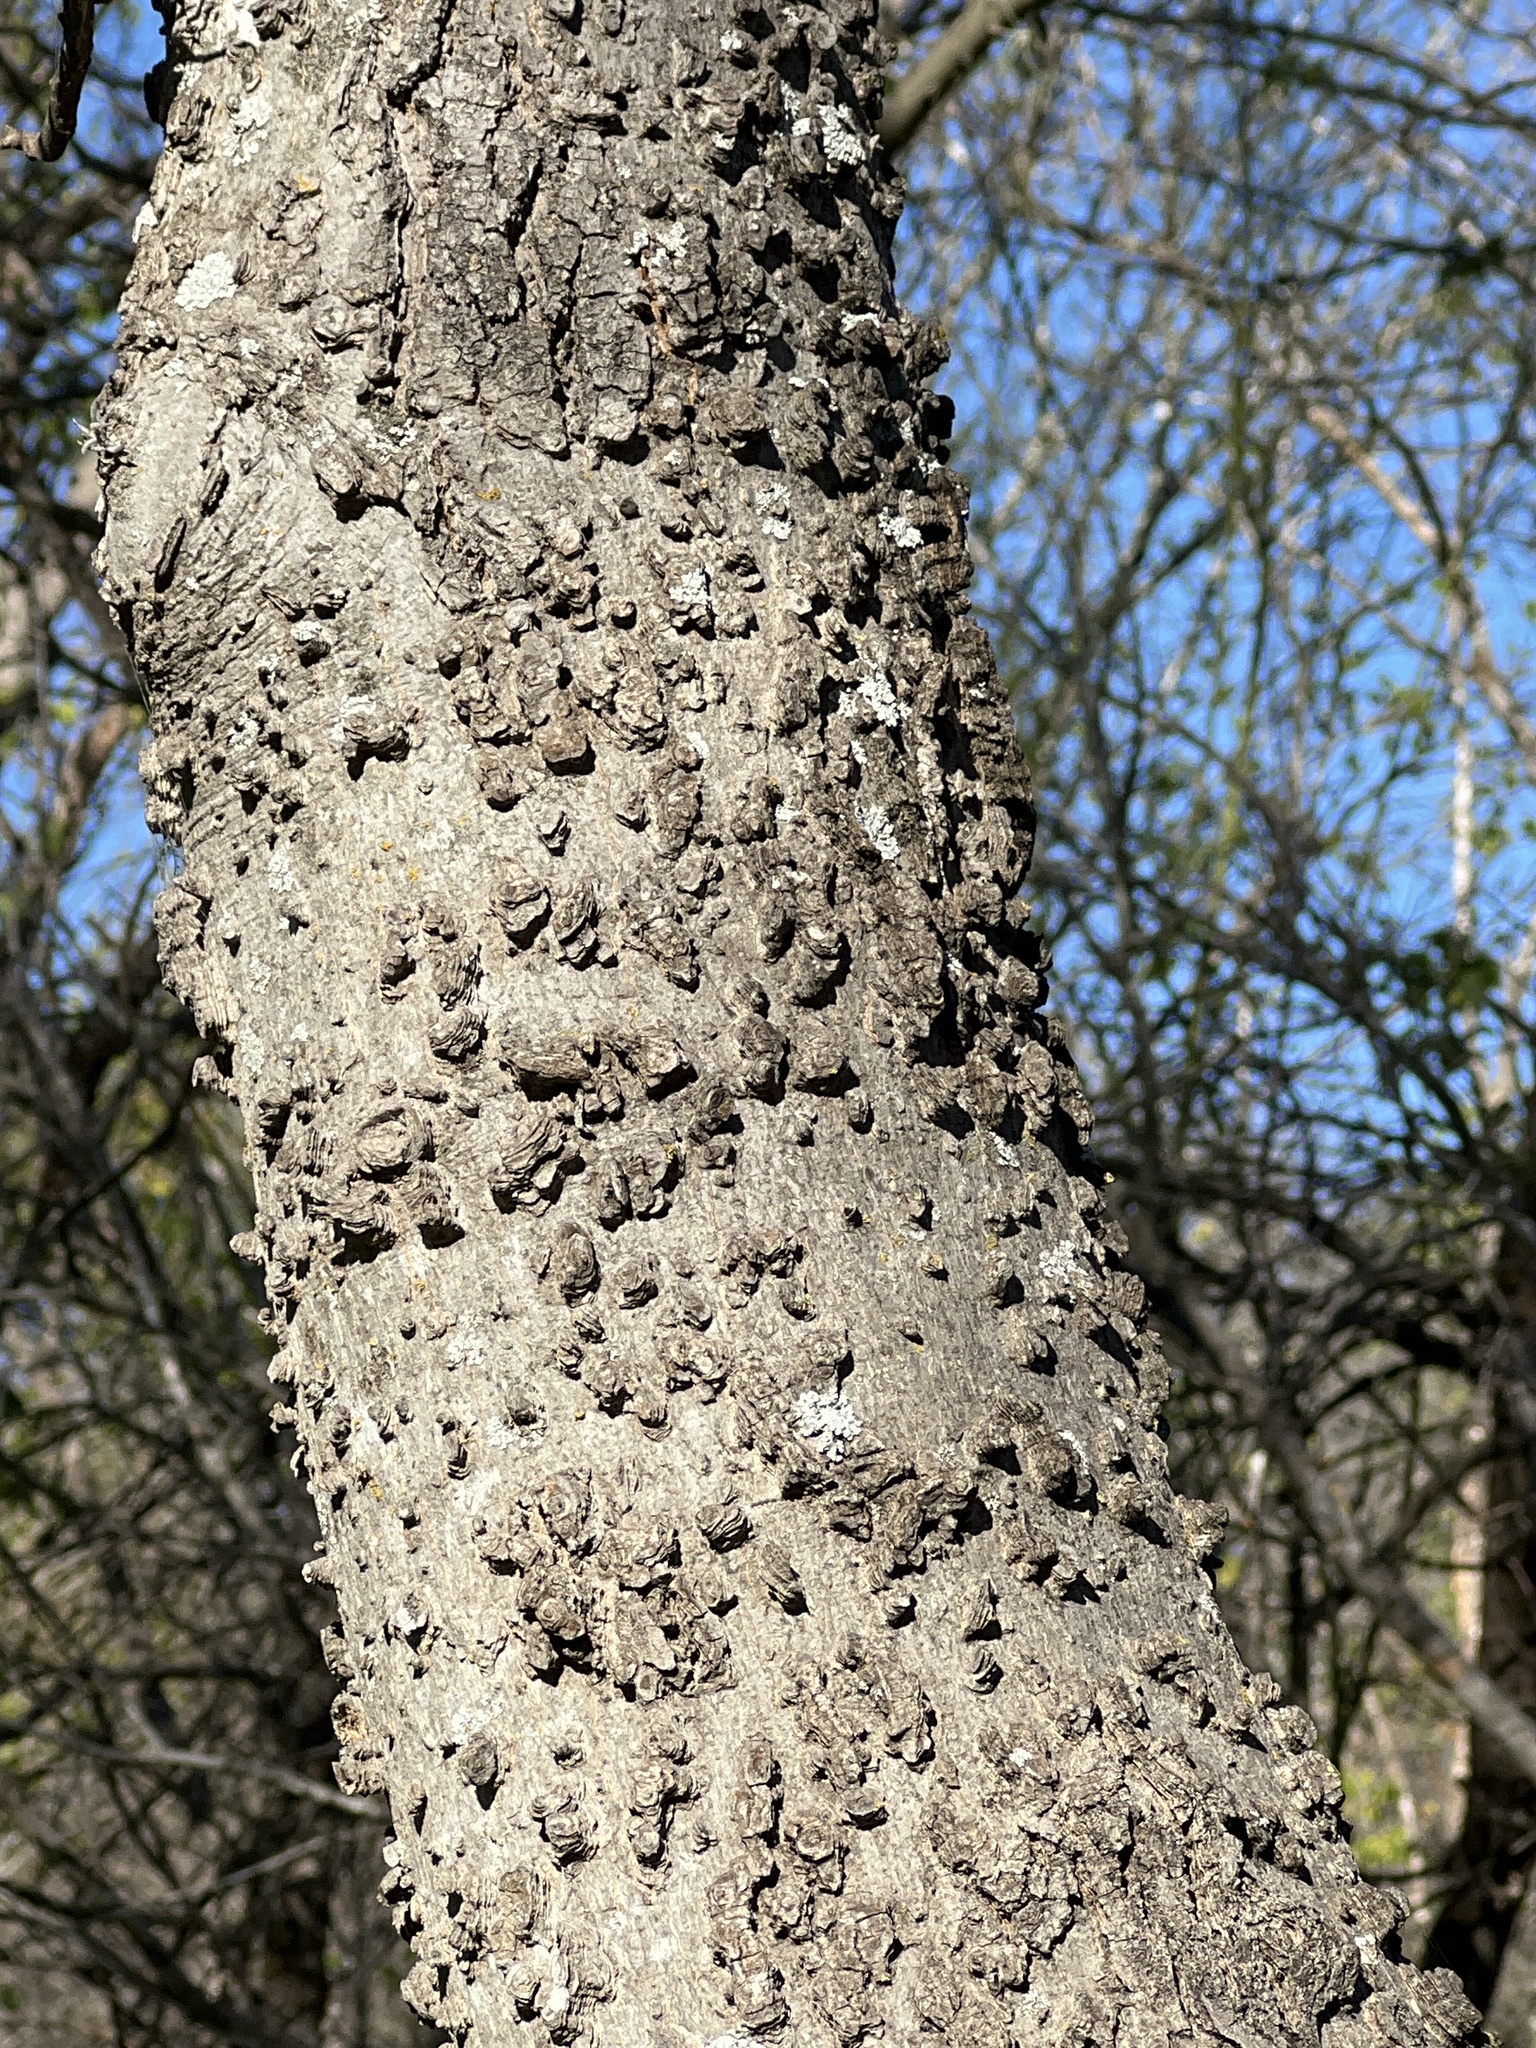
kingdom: Plantae
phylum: Tracheophyta
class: Magnoliopsida
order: Rosales
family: Cannabaceae
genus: Celtis
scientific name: Celtis laevigata
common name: Sugarberry
